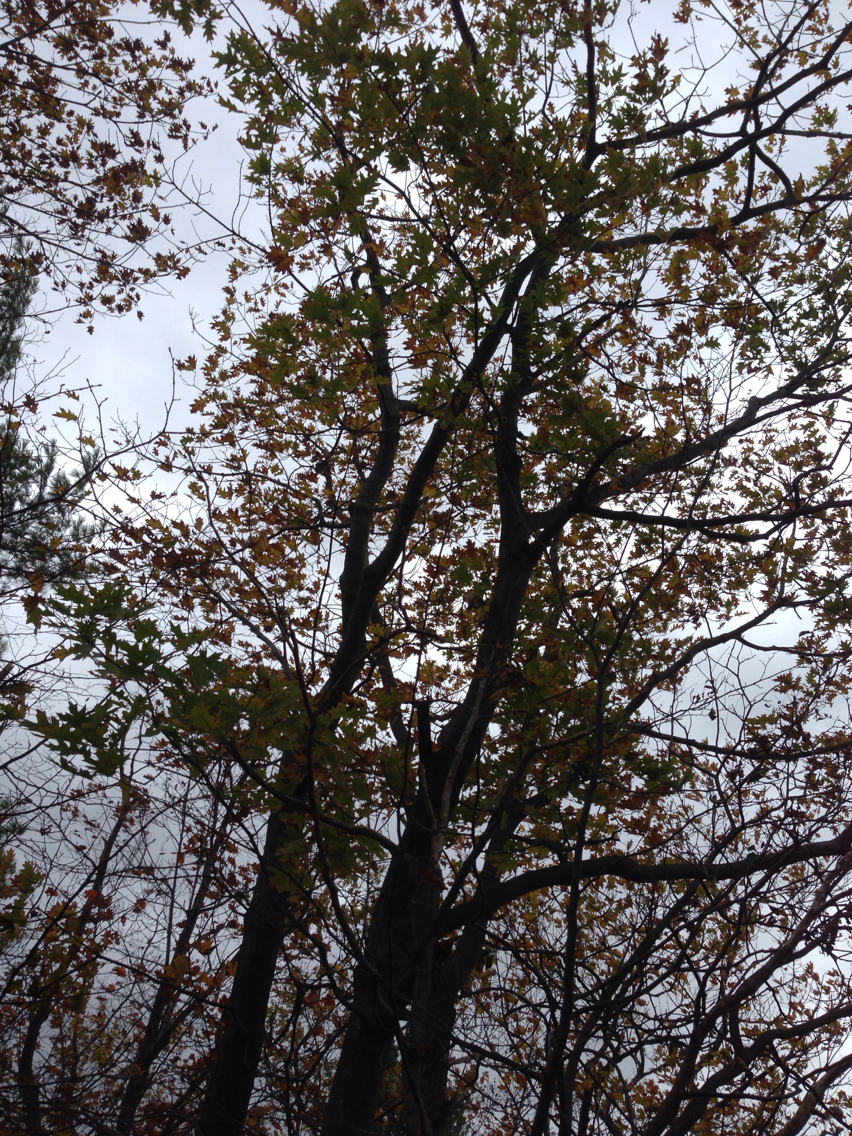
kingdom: Plantae
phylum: Tracheophyta
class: Magnoliopsida
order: Fagales
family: Fagaceae
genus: Quercus
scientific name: Quercus rubra
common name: Red oak
